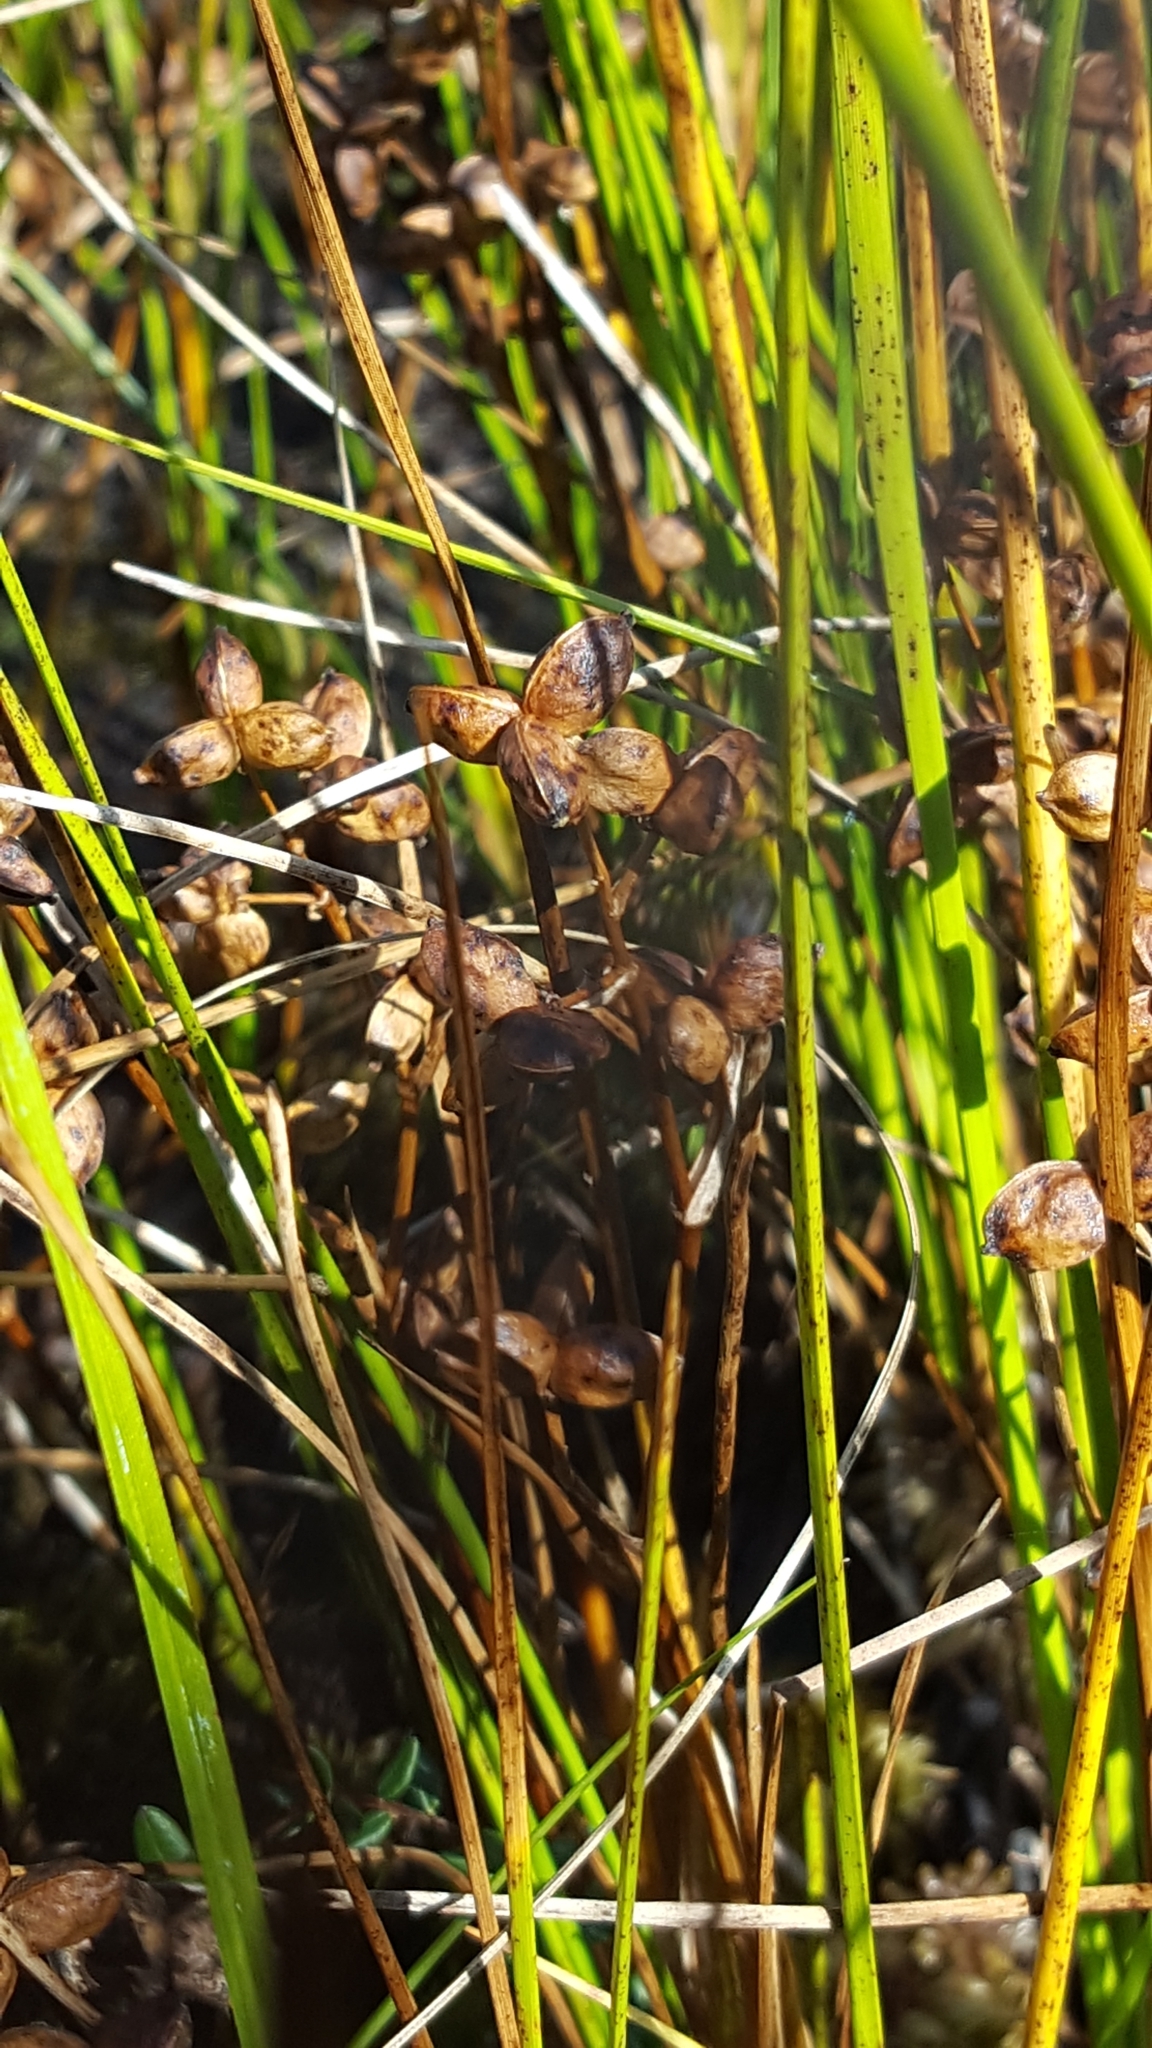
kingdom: Plantae
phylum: Tracheophyta
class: Liliopsida
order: Alismatales
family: Scheuchzeriaceae
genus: Scheuchzeria
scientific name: Scheuchzeria palustris
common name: Rannoch-rush
